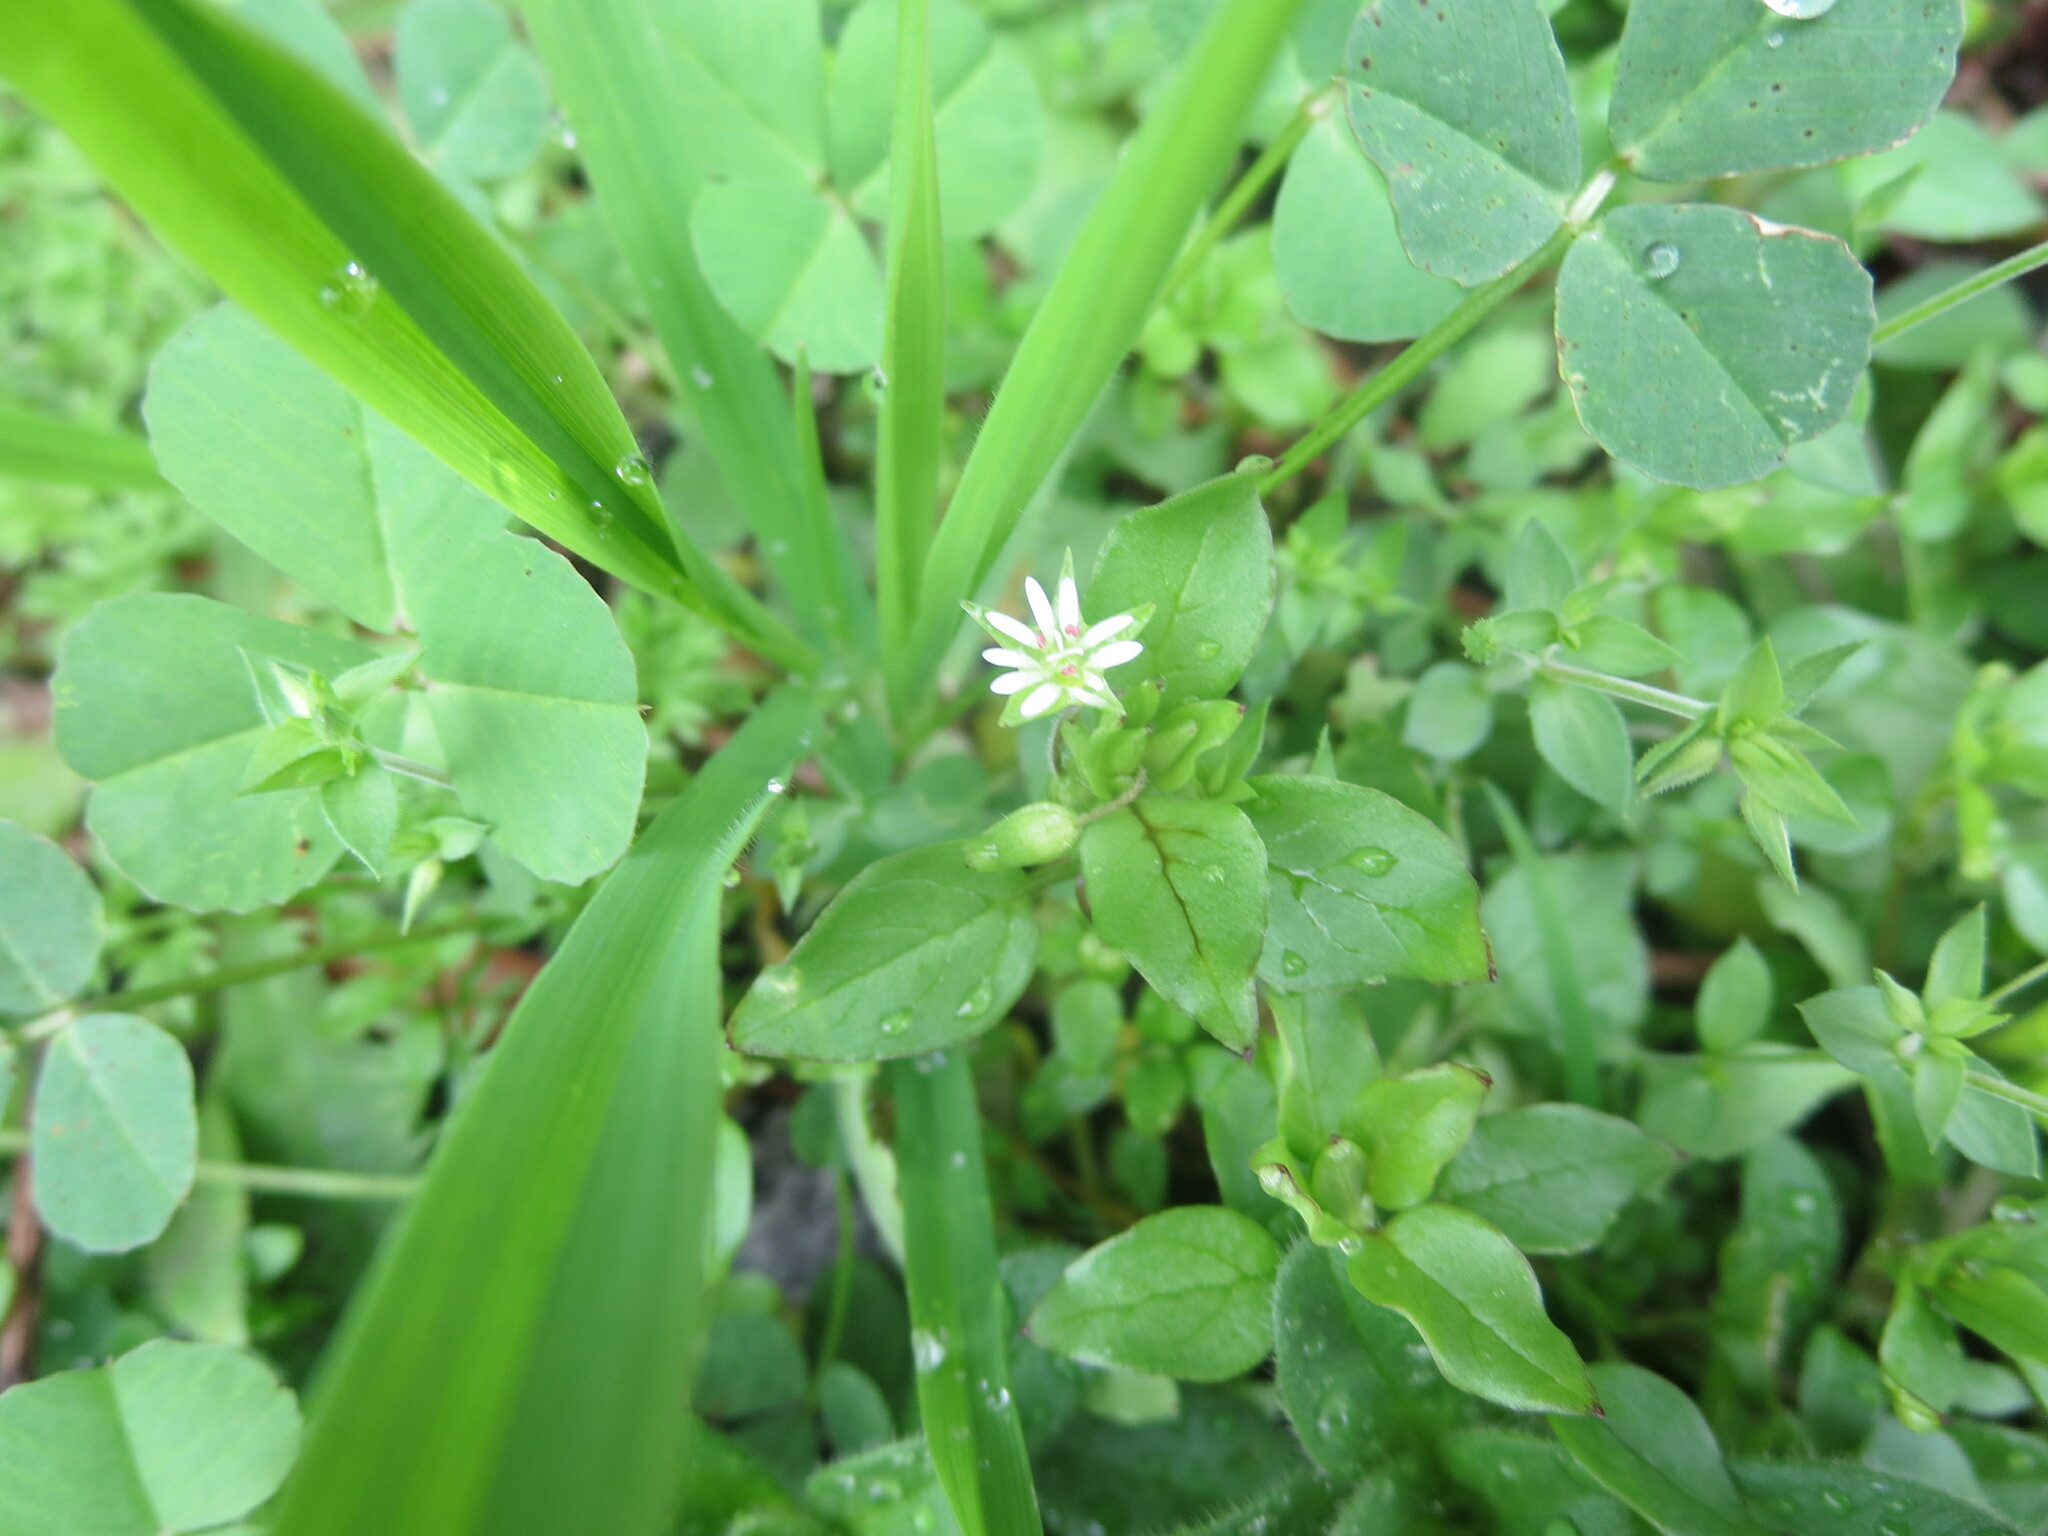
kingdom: Plantae
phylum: Tracheophyta
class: Magnoliopsida
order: Caryophyllales
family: Caryophyllaceae
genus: Stellaria
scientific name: Stellaria media
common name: Common chickweed
